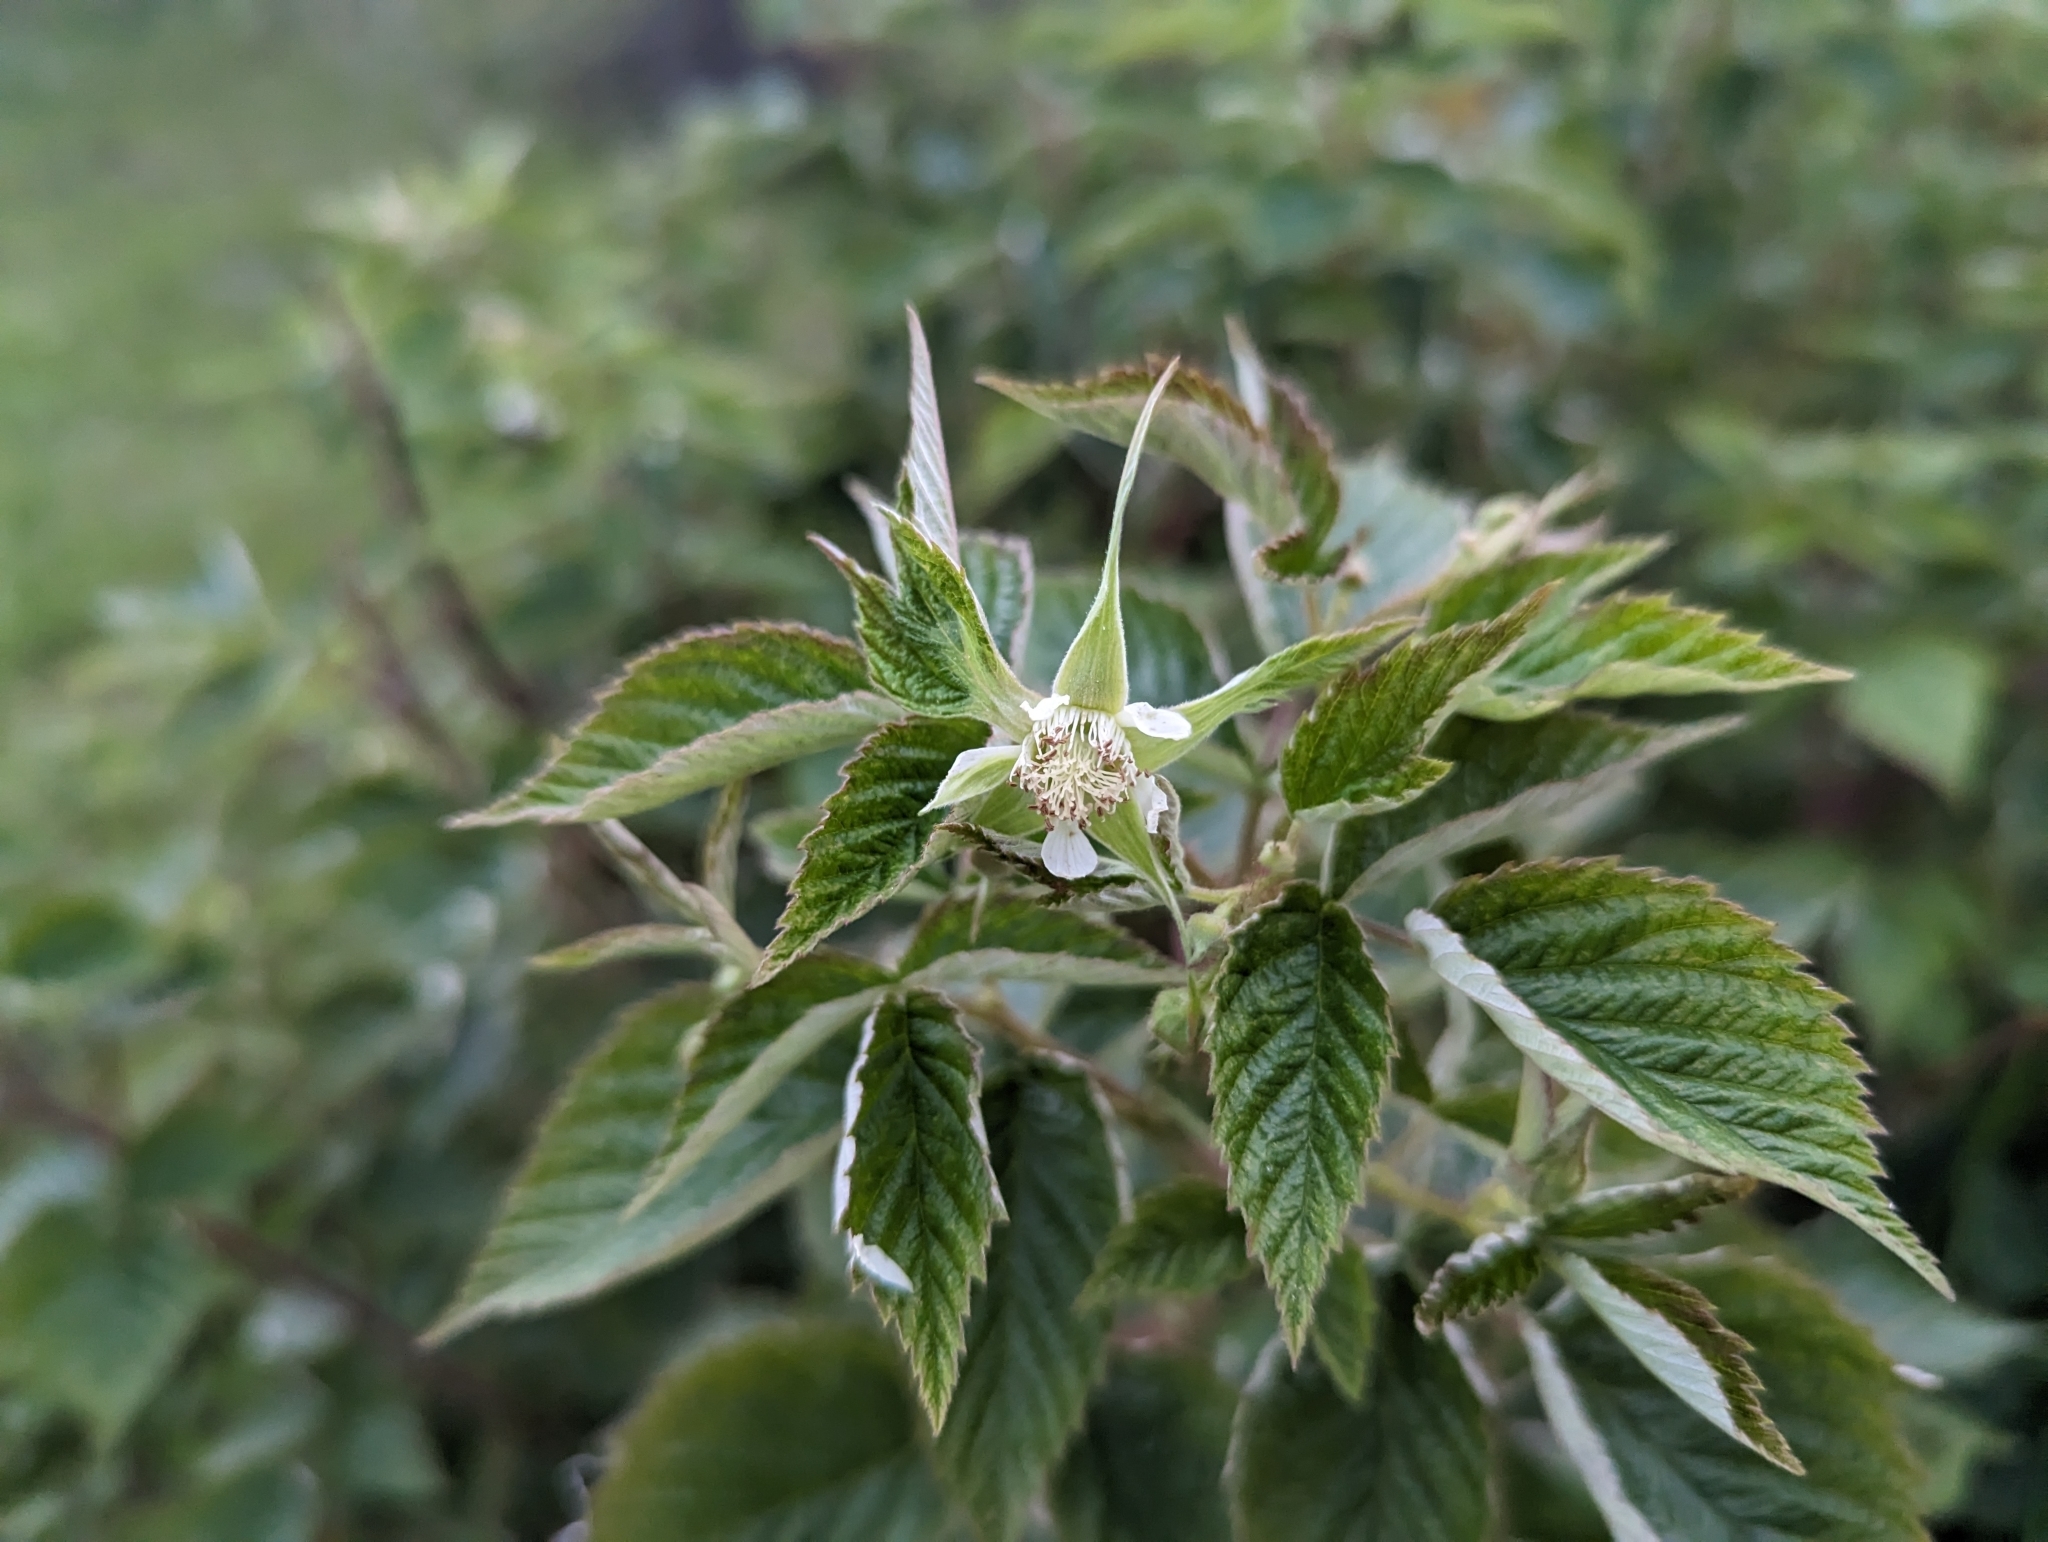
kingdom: Plantae
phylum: Tracheophyta
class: Magnoliopsida
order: Rosales
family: Rosaceae
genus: Rubus
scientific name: Rubus idaeus
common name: Raspberry
